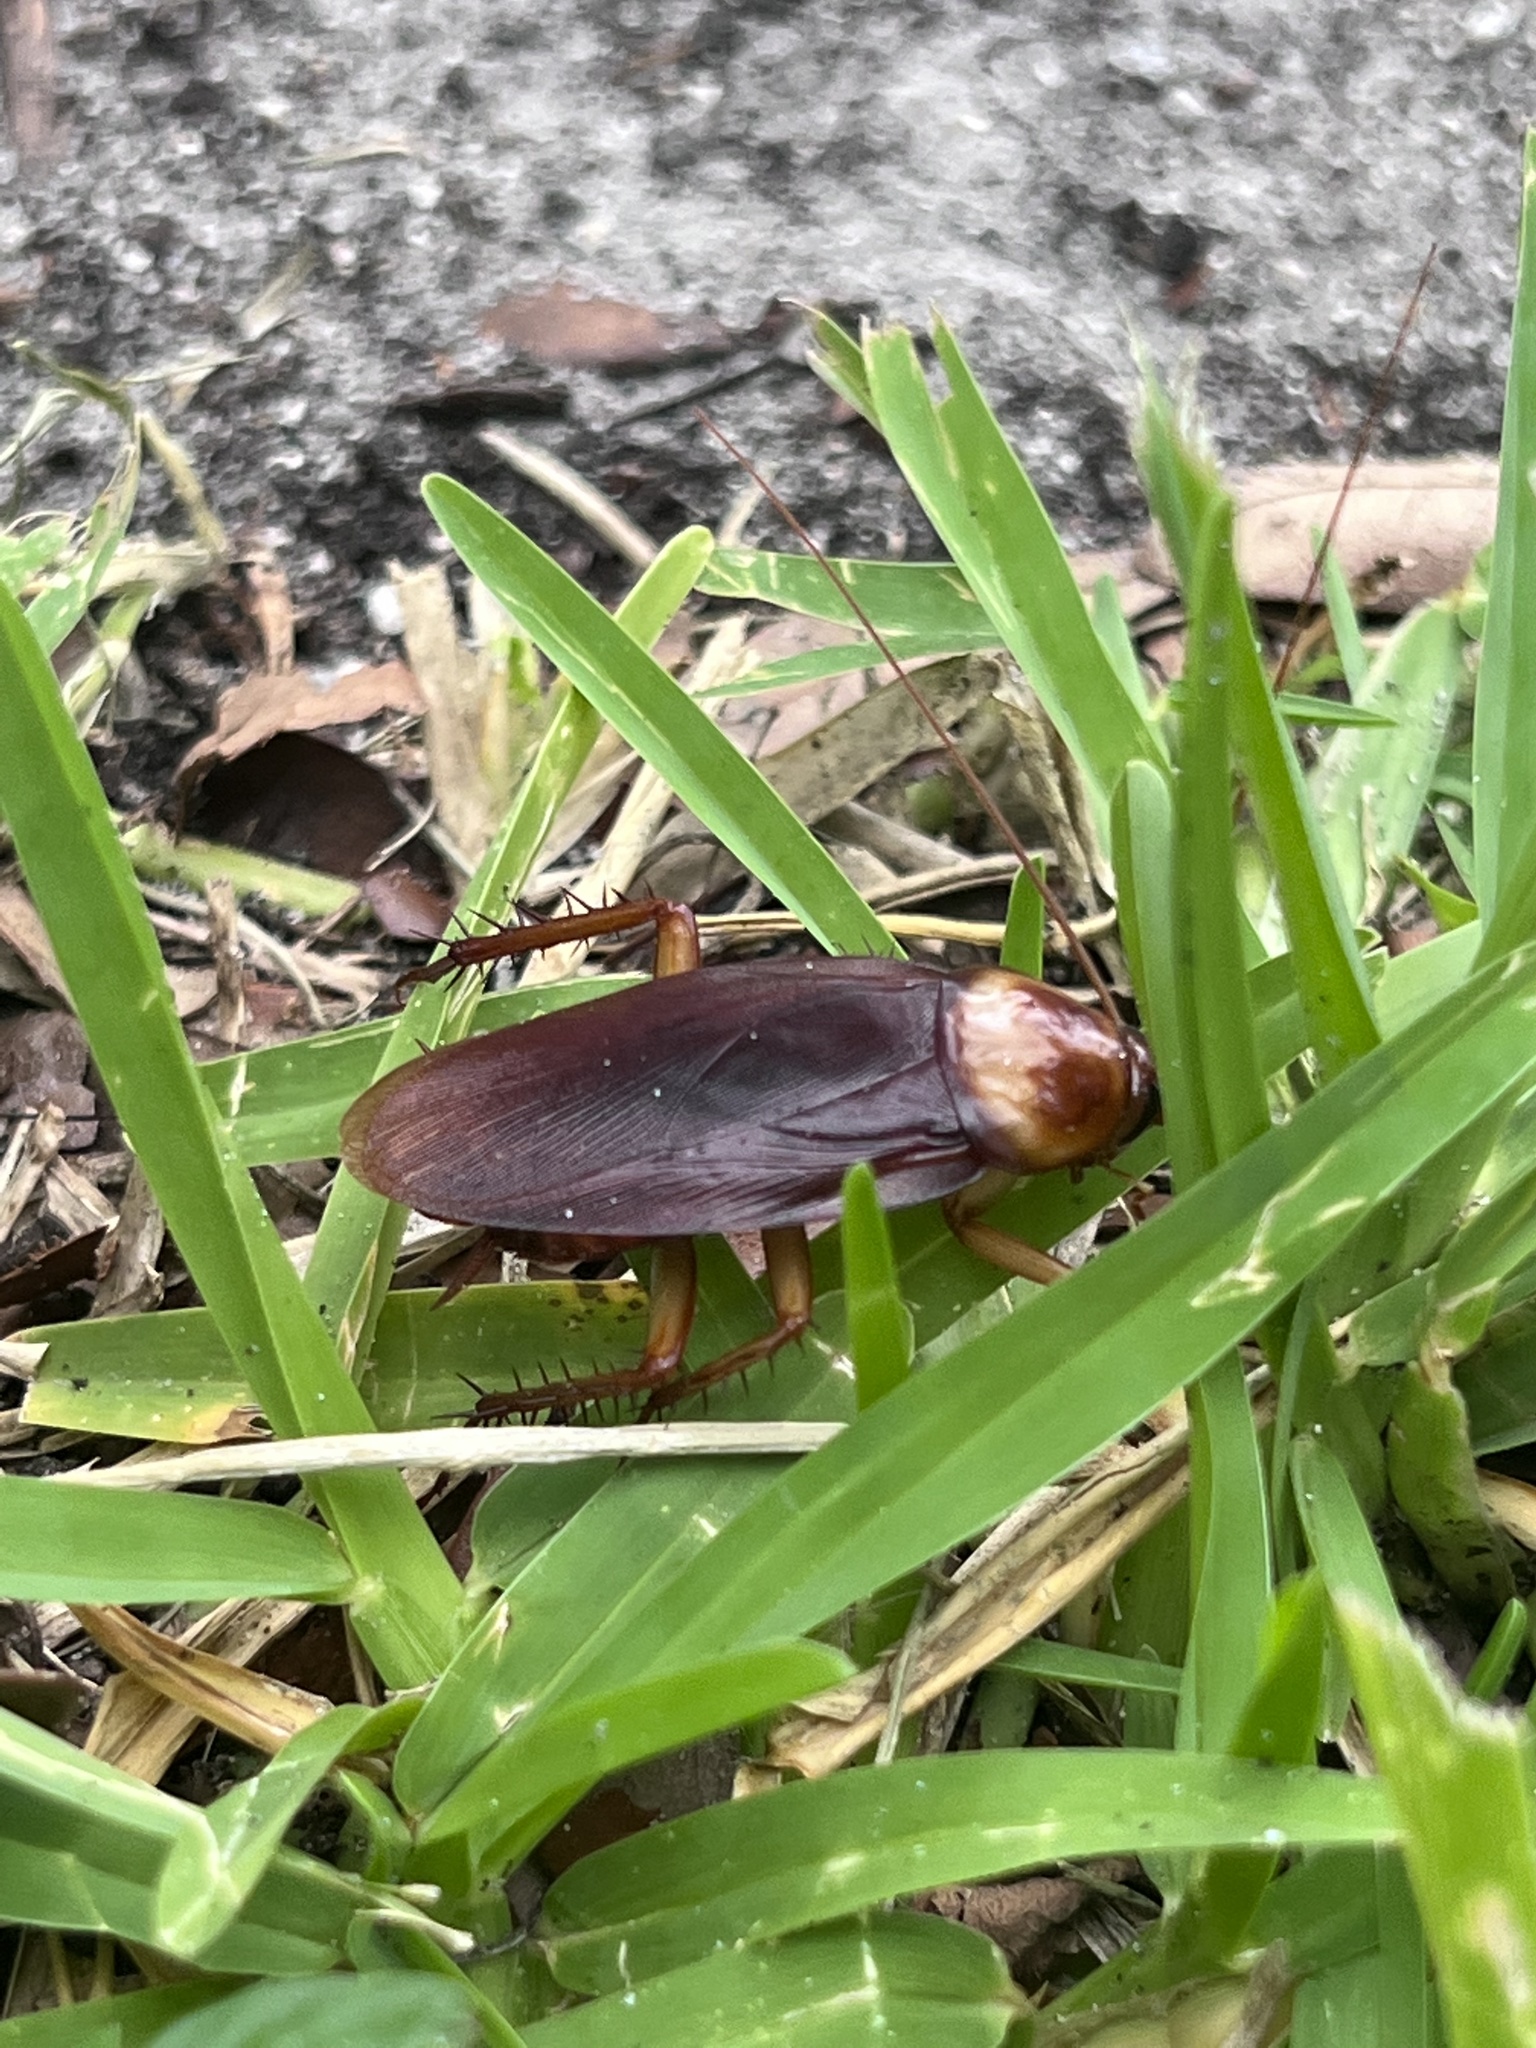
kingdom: Animalia
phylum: Arthropoda
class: Insecta
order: Blattodea
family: Blattidae
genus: Periplaneta
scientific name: Periplaneta americana
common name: American cockroach
